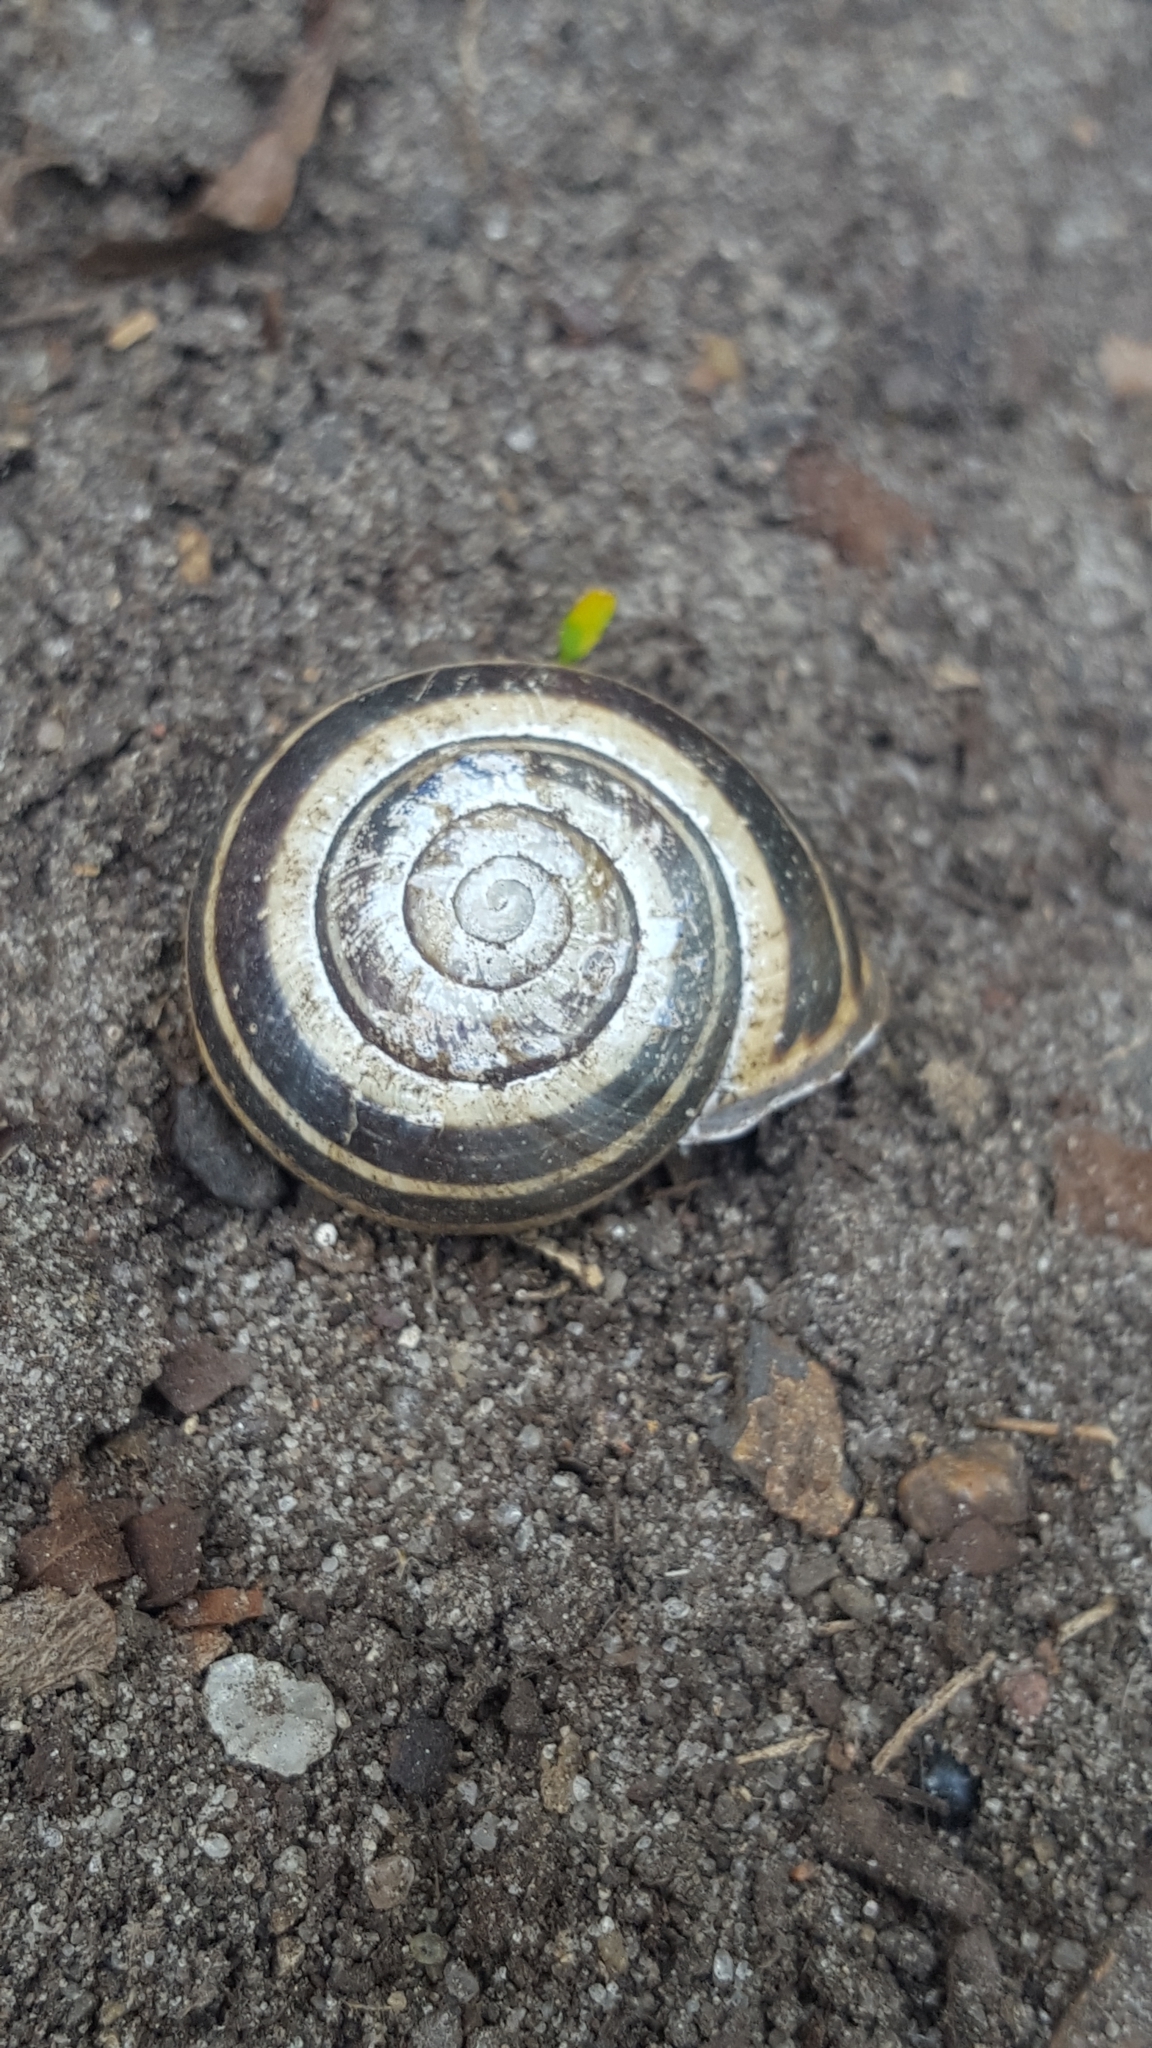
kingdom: Animalia
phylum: Mollusca
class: Gastropoda
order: Stylommatophora
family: Helicidae
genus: Cepaea
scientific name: Cepaea nemoralis
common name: Grovesnail
